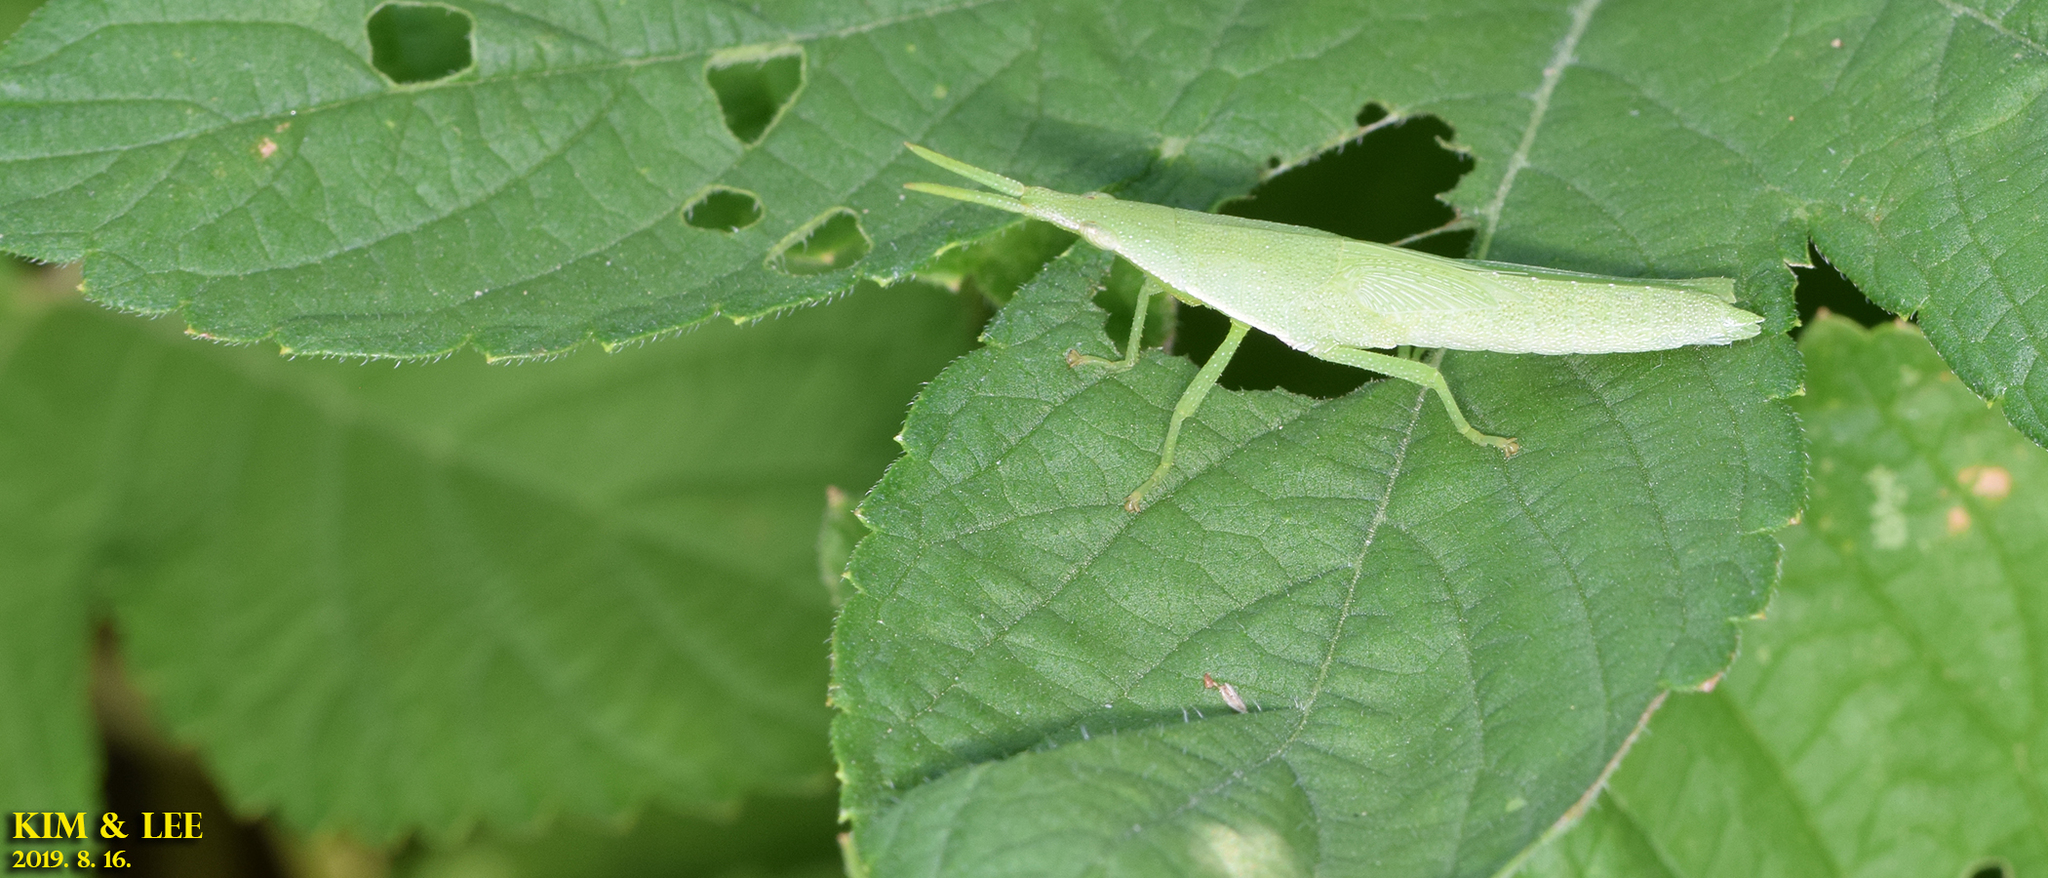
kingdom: Animalia
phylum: Arthropoda
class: Insecta
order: Orthoptera
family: Pyrgomorphidae
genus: Atractomorpha
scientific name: Atractomorpha lata
